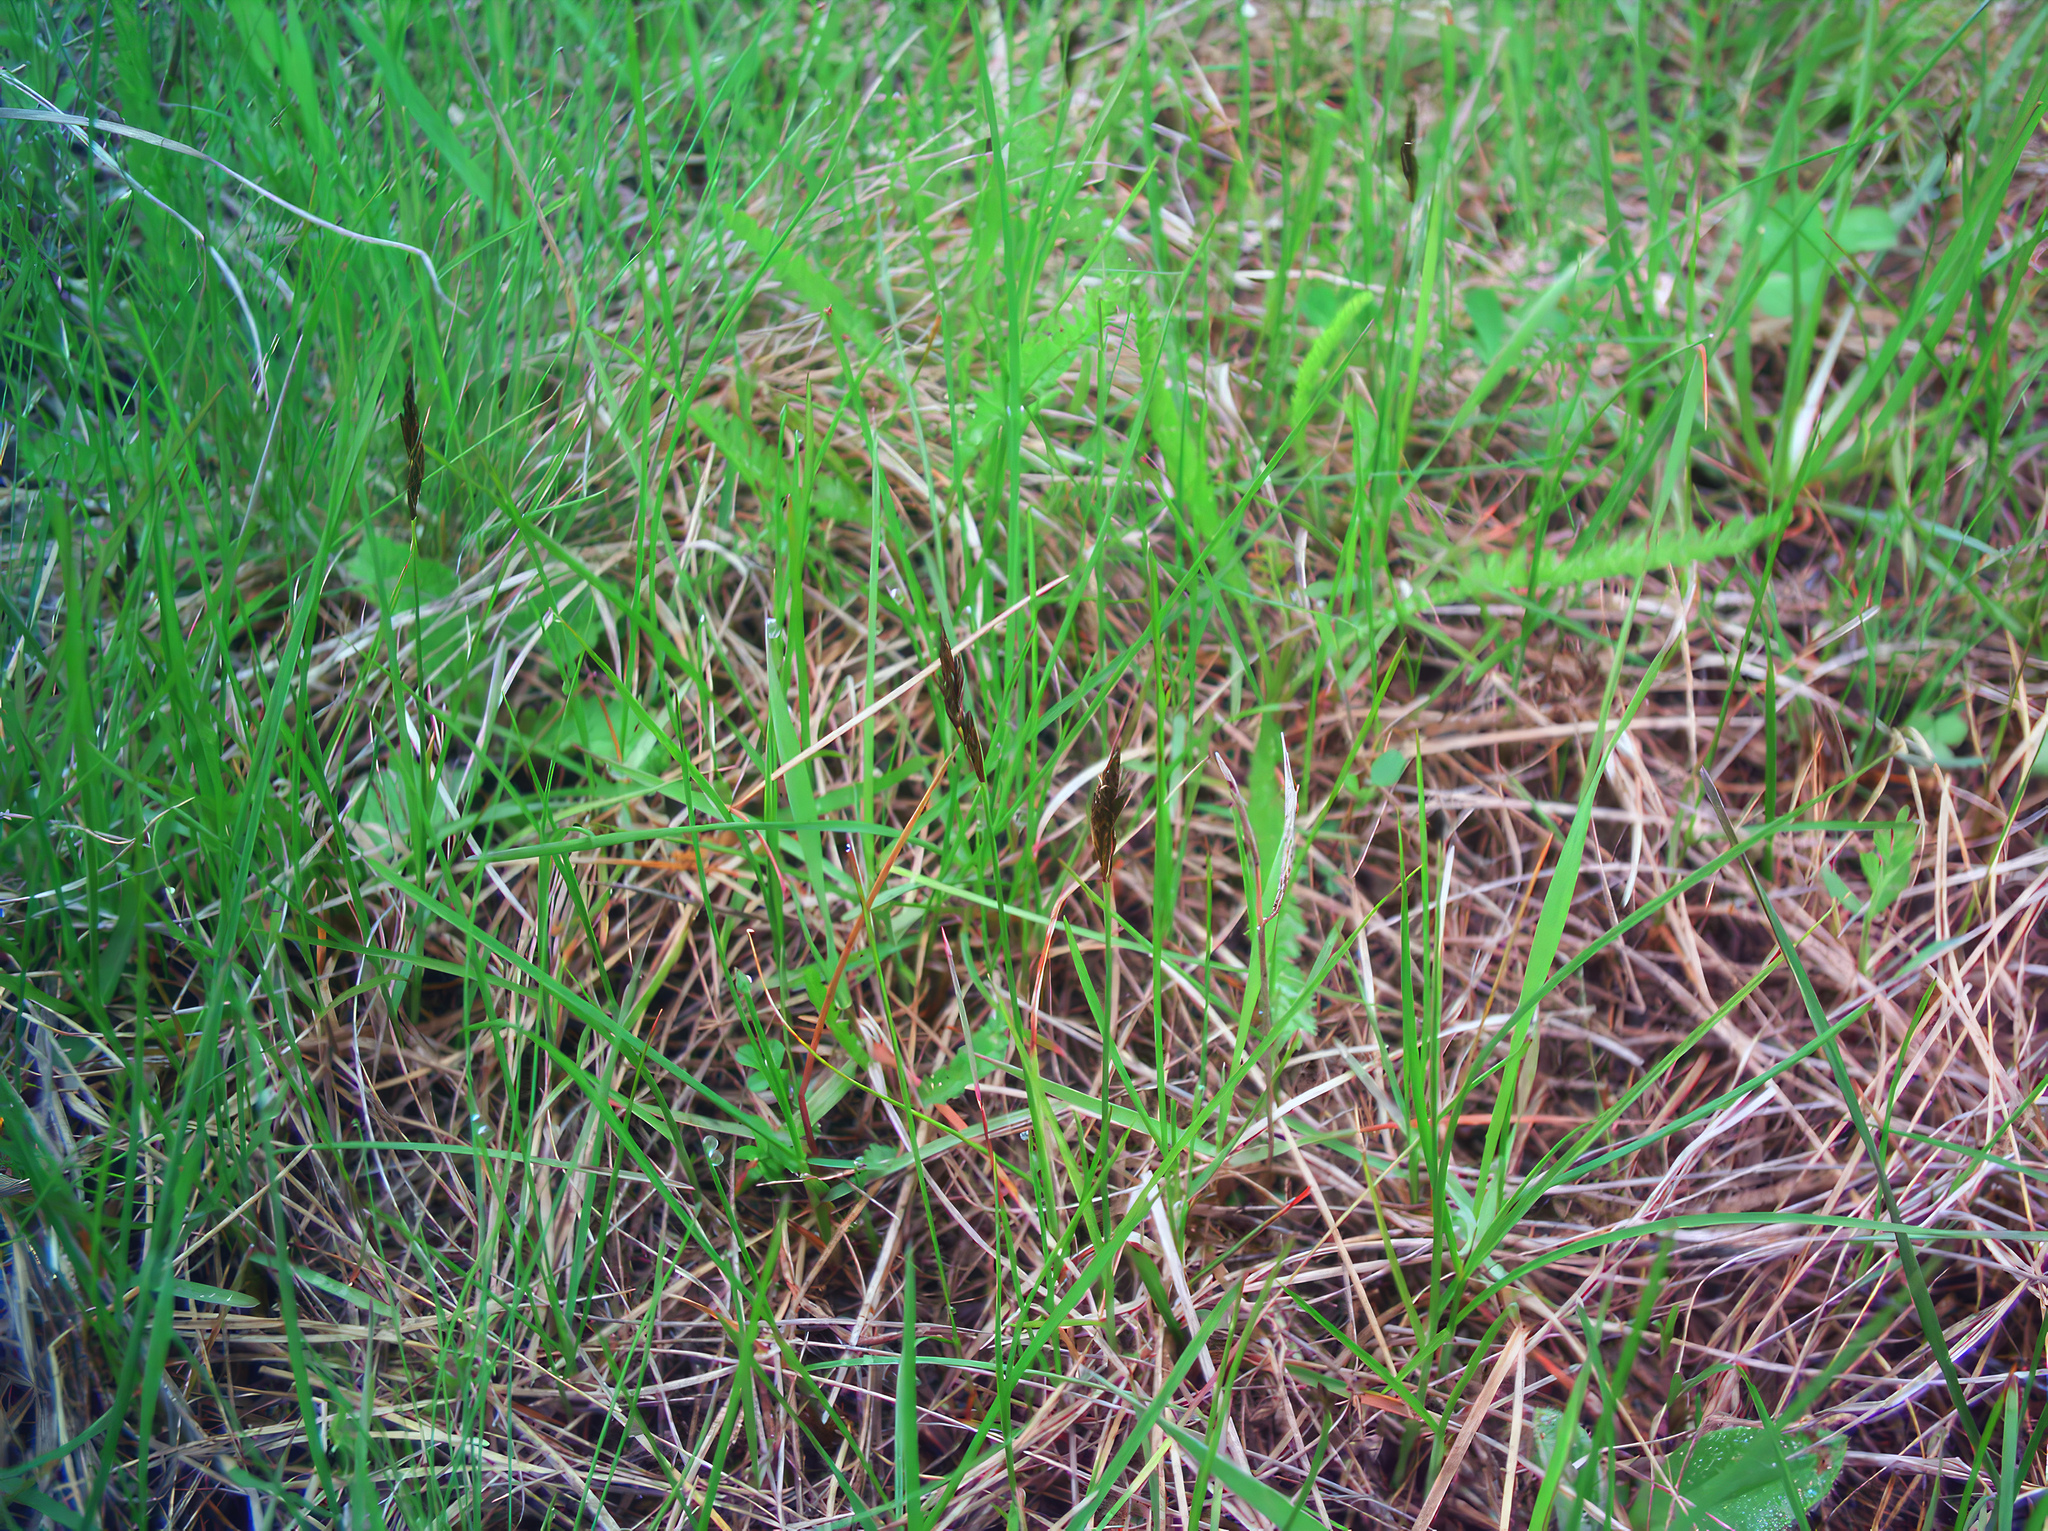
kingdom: Plantae
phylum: Tracheophyta
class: Liliopsida
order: Poales
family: Cyperaceae
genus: Carex
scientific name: Carex praecox
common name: Early sedge
